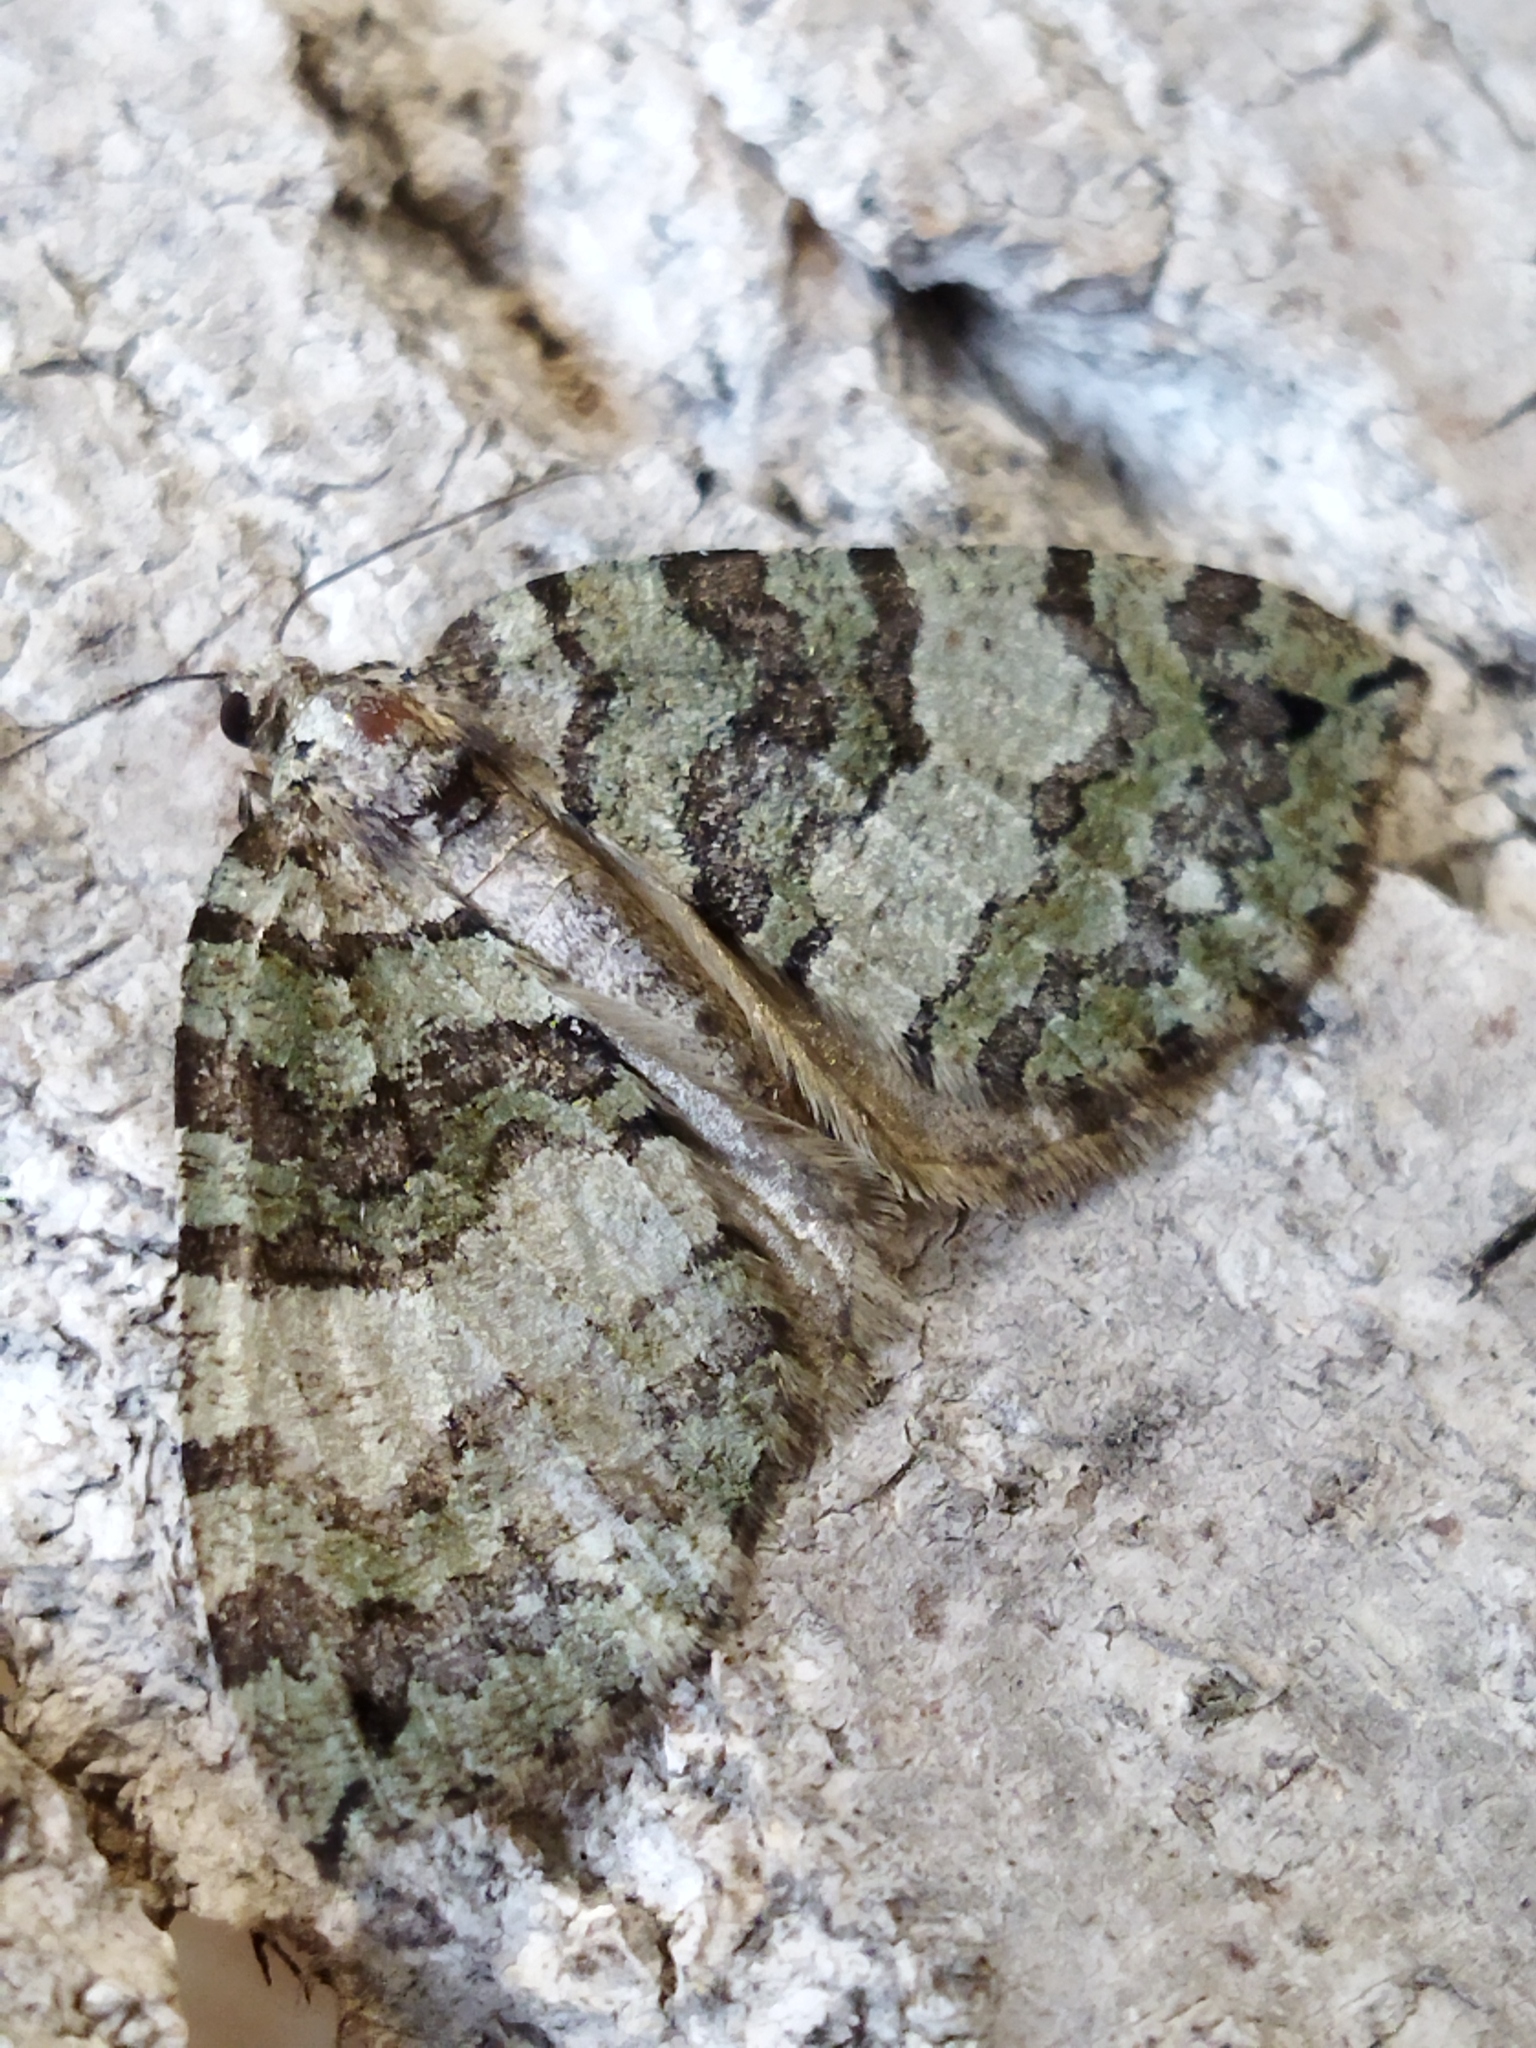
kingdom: Animalia
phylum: Arthropoda
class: Insecta
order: Lepidoptera
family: Geometridae
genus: Hydriomena
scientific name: Hydriomena furcata
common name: July highflyer
